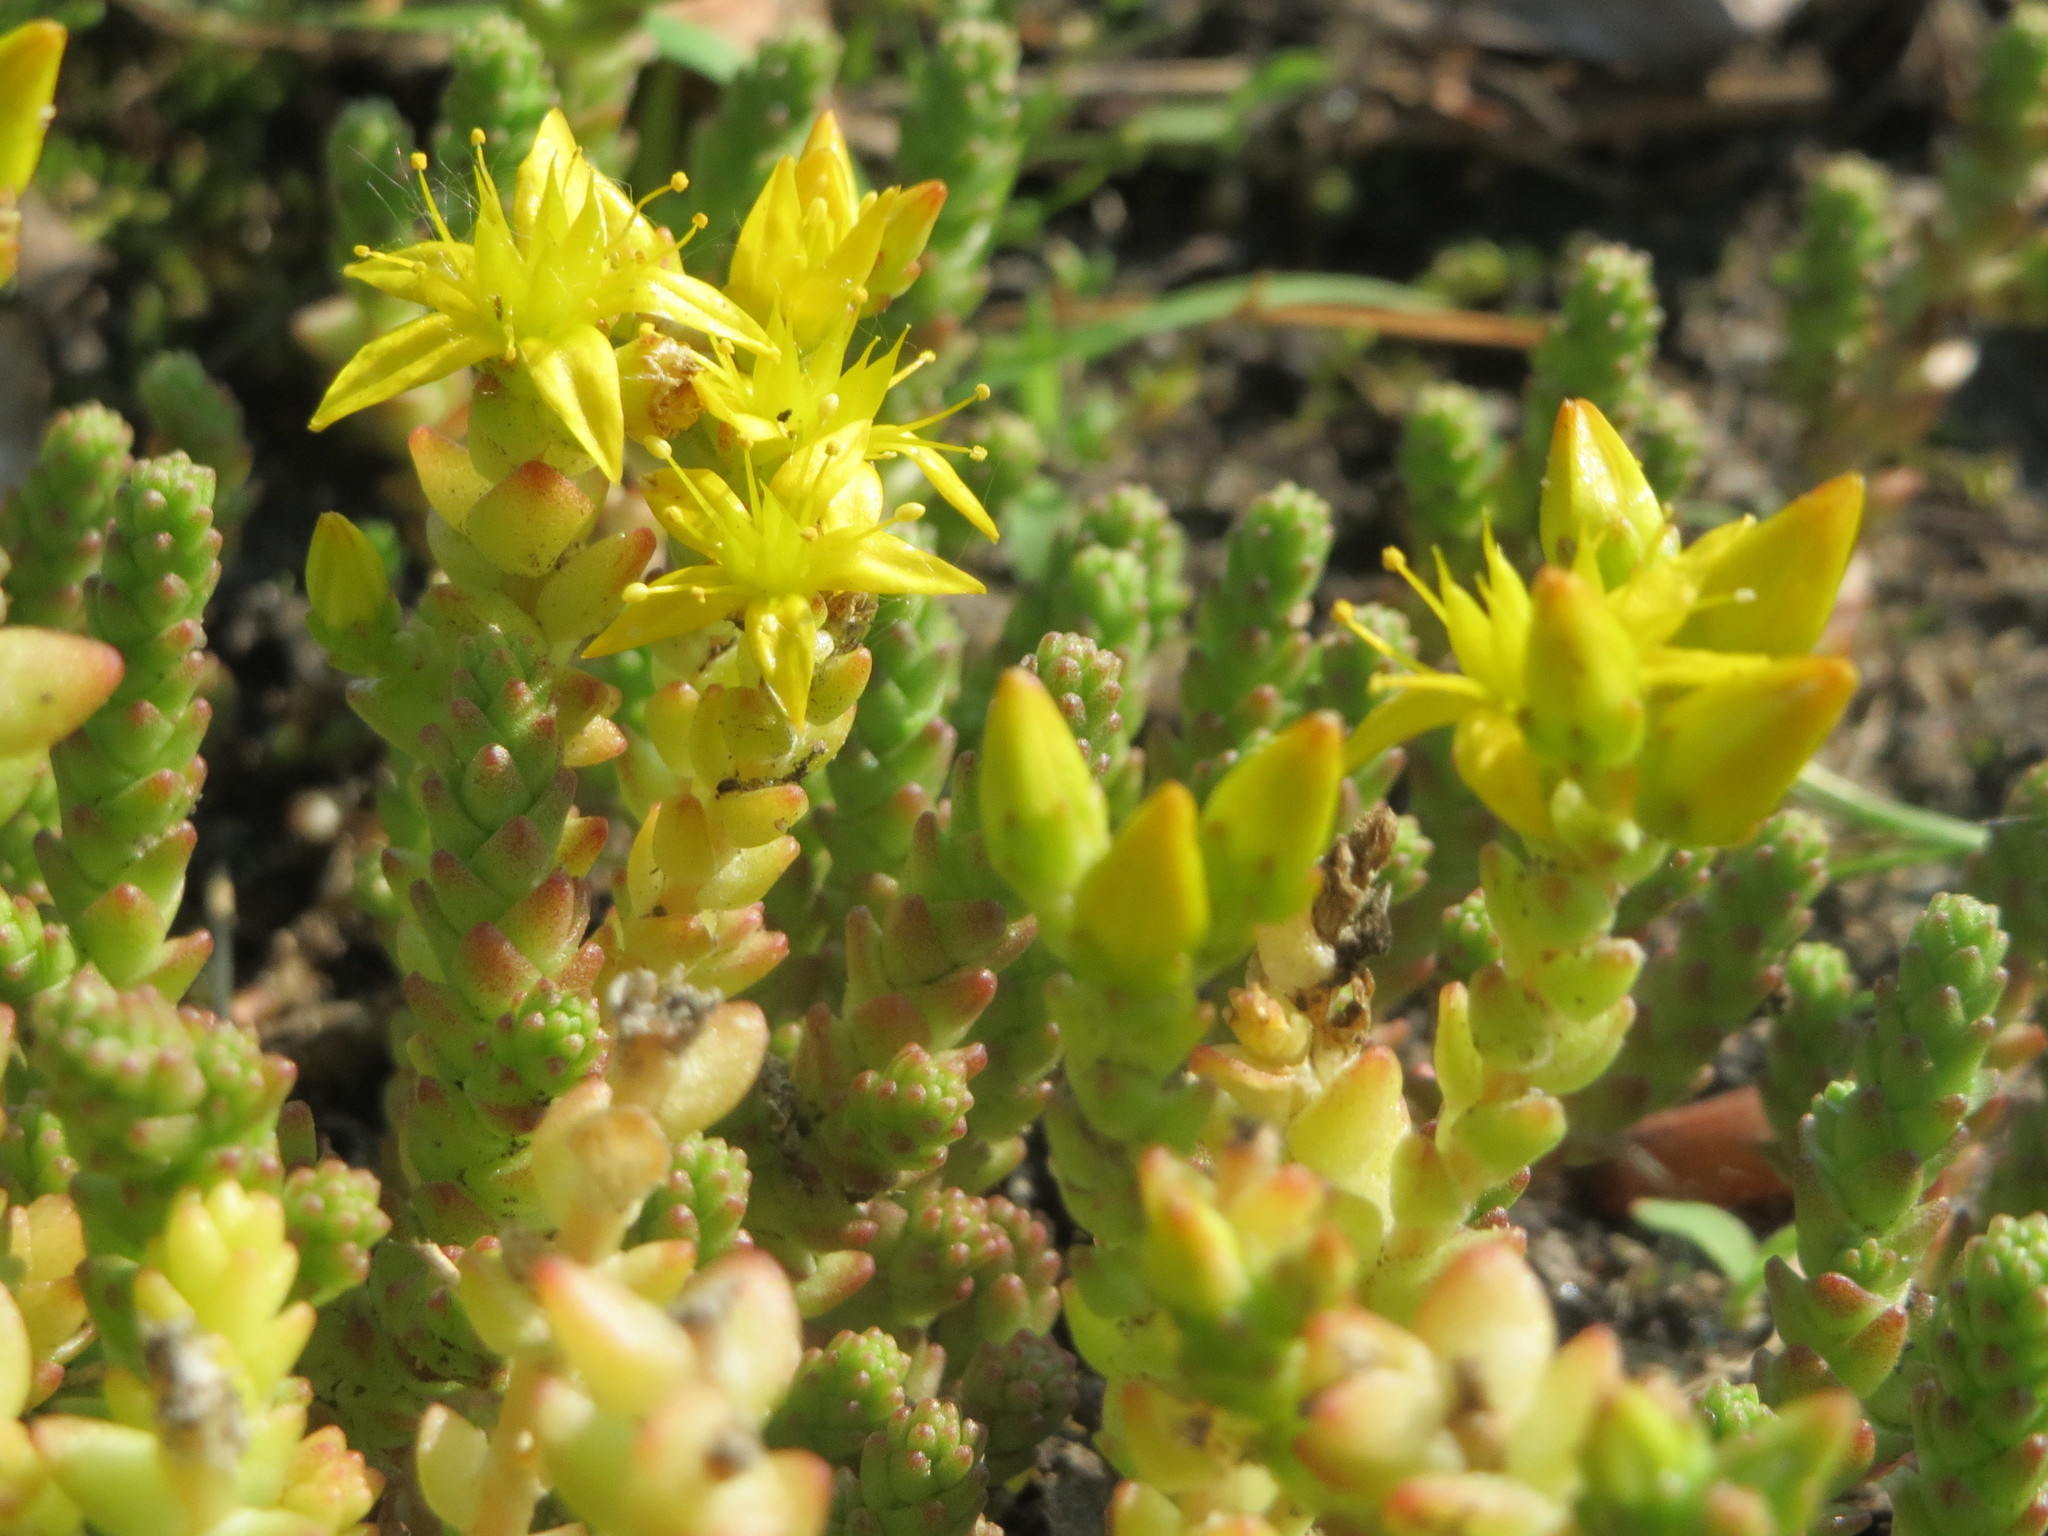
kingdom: Plantae
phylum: Tracheophyta
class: Magnoliopsida
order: Saxifragales
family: Crassulaceae
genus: Sedum
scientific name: Sedum acre
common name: Biting stonecrop
